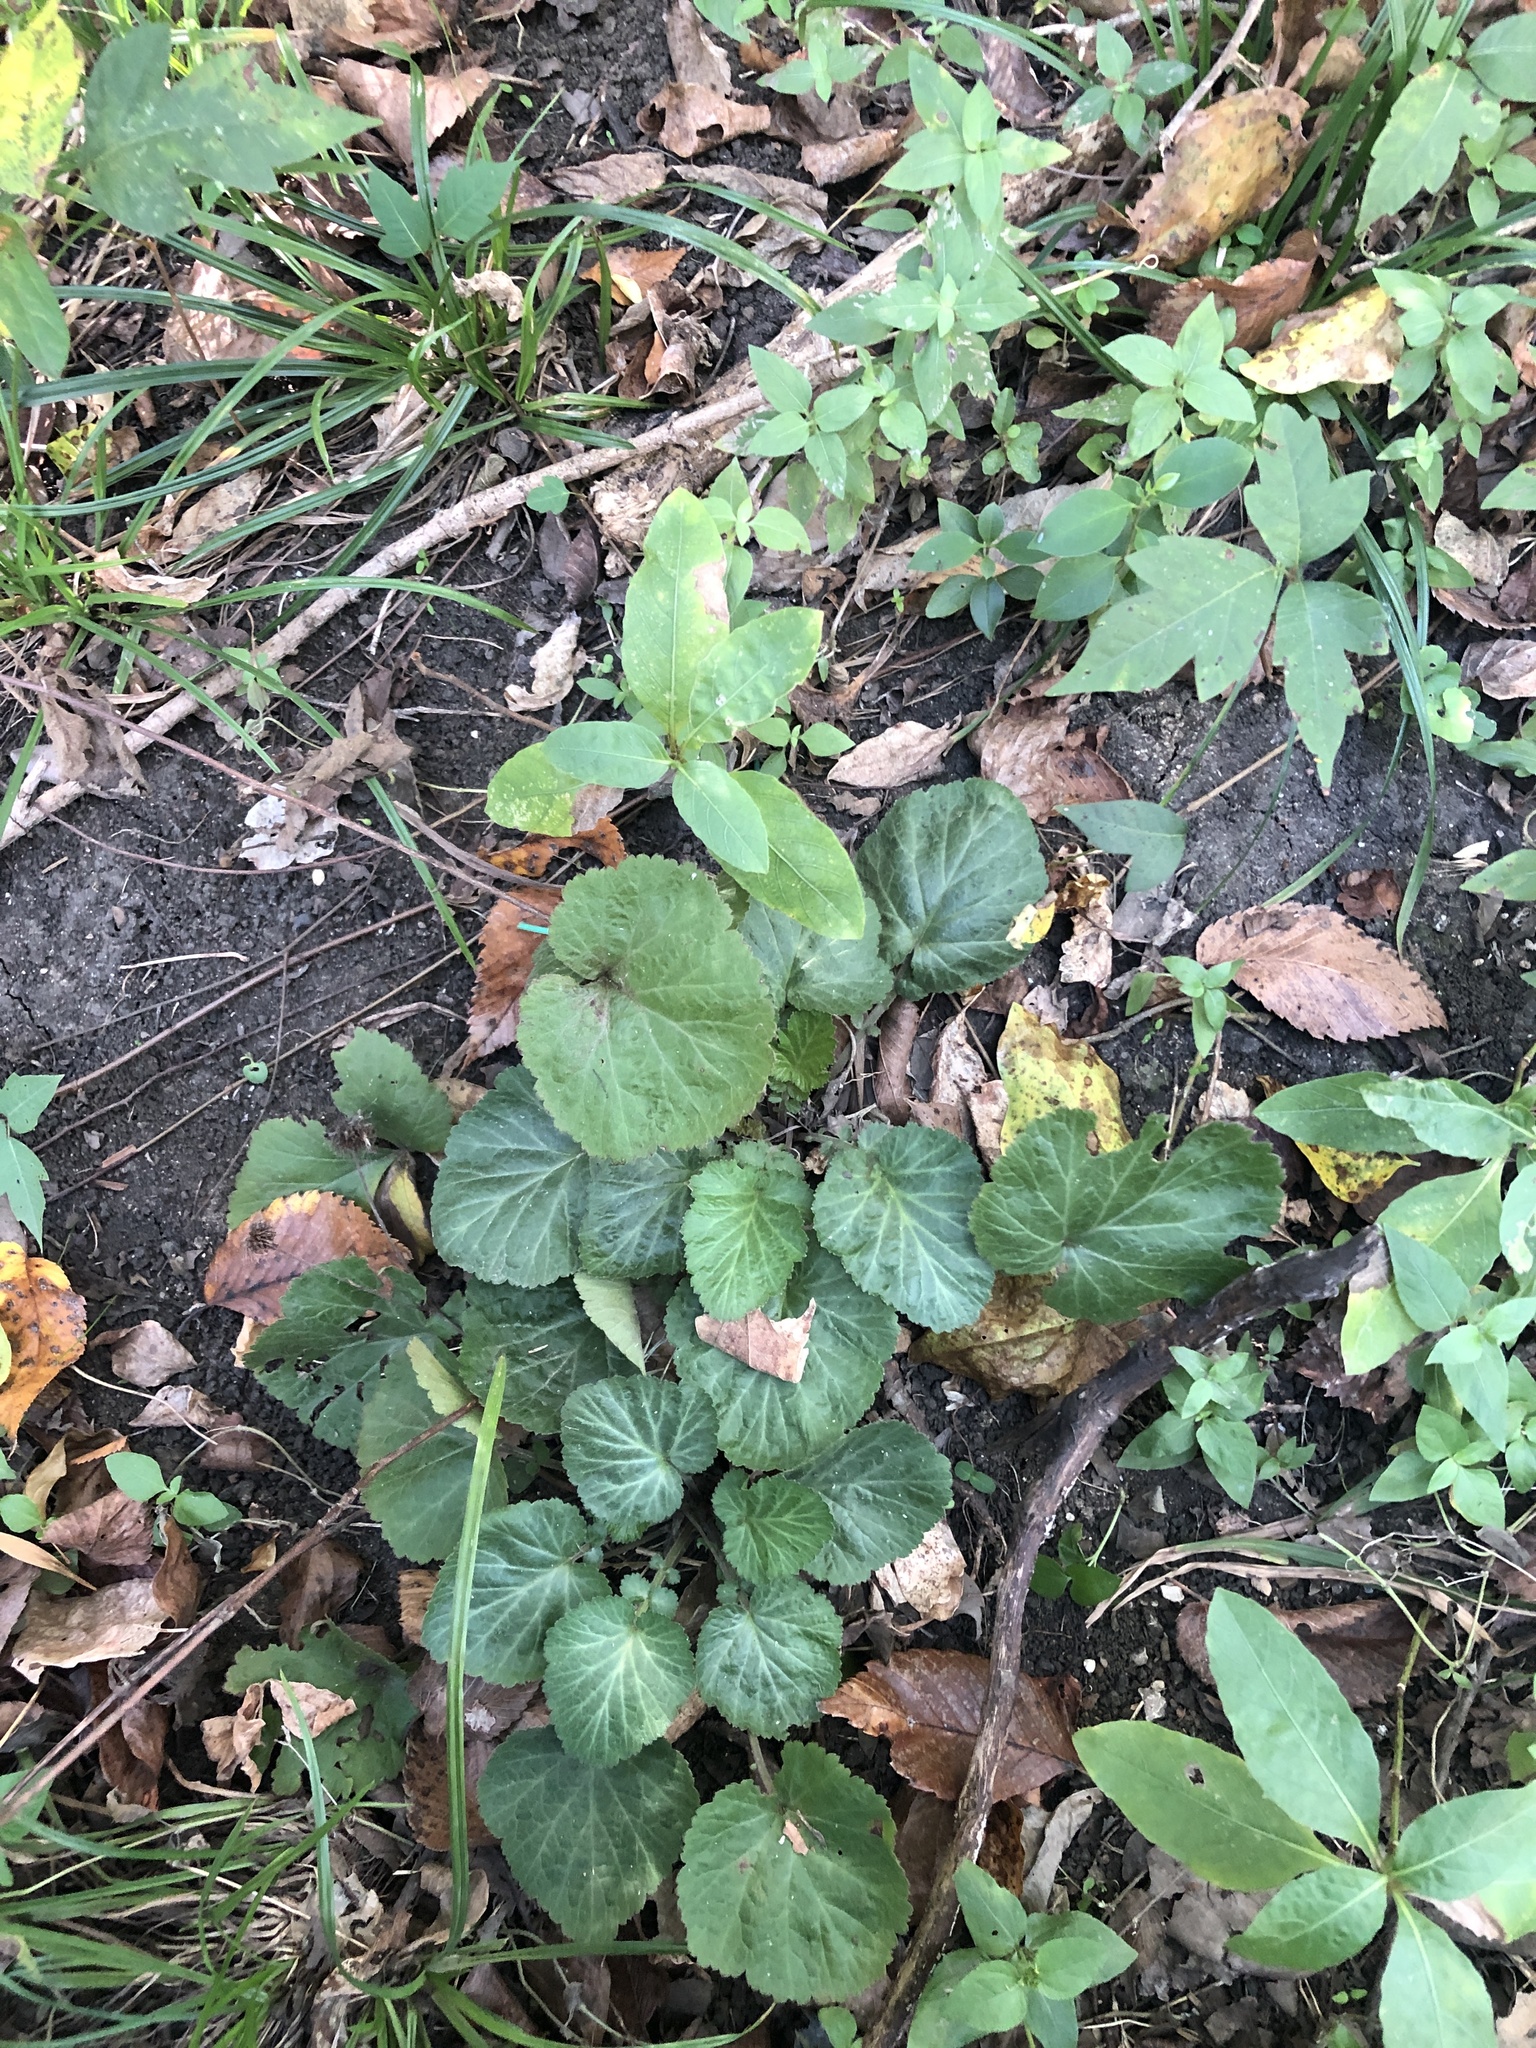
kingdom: Plantae
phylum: Tracheophyta
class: Magnoliopsida
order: Rosales
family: Rosaceae
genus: Geum
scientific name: Geum canadense
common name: White avens
